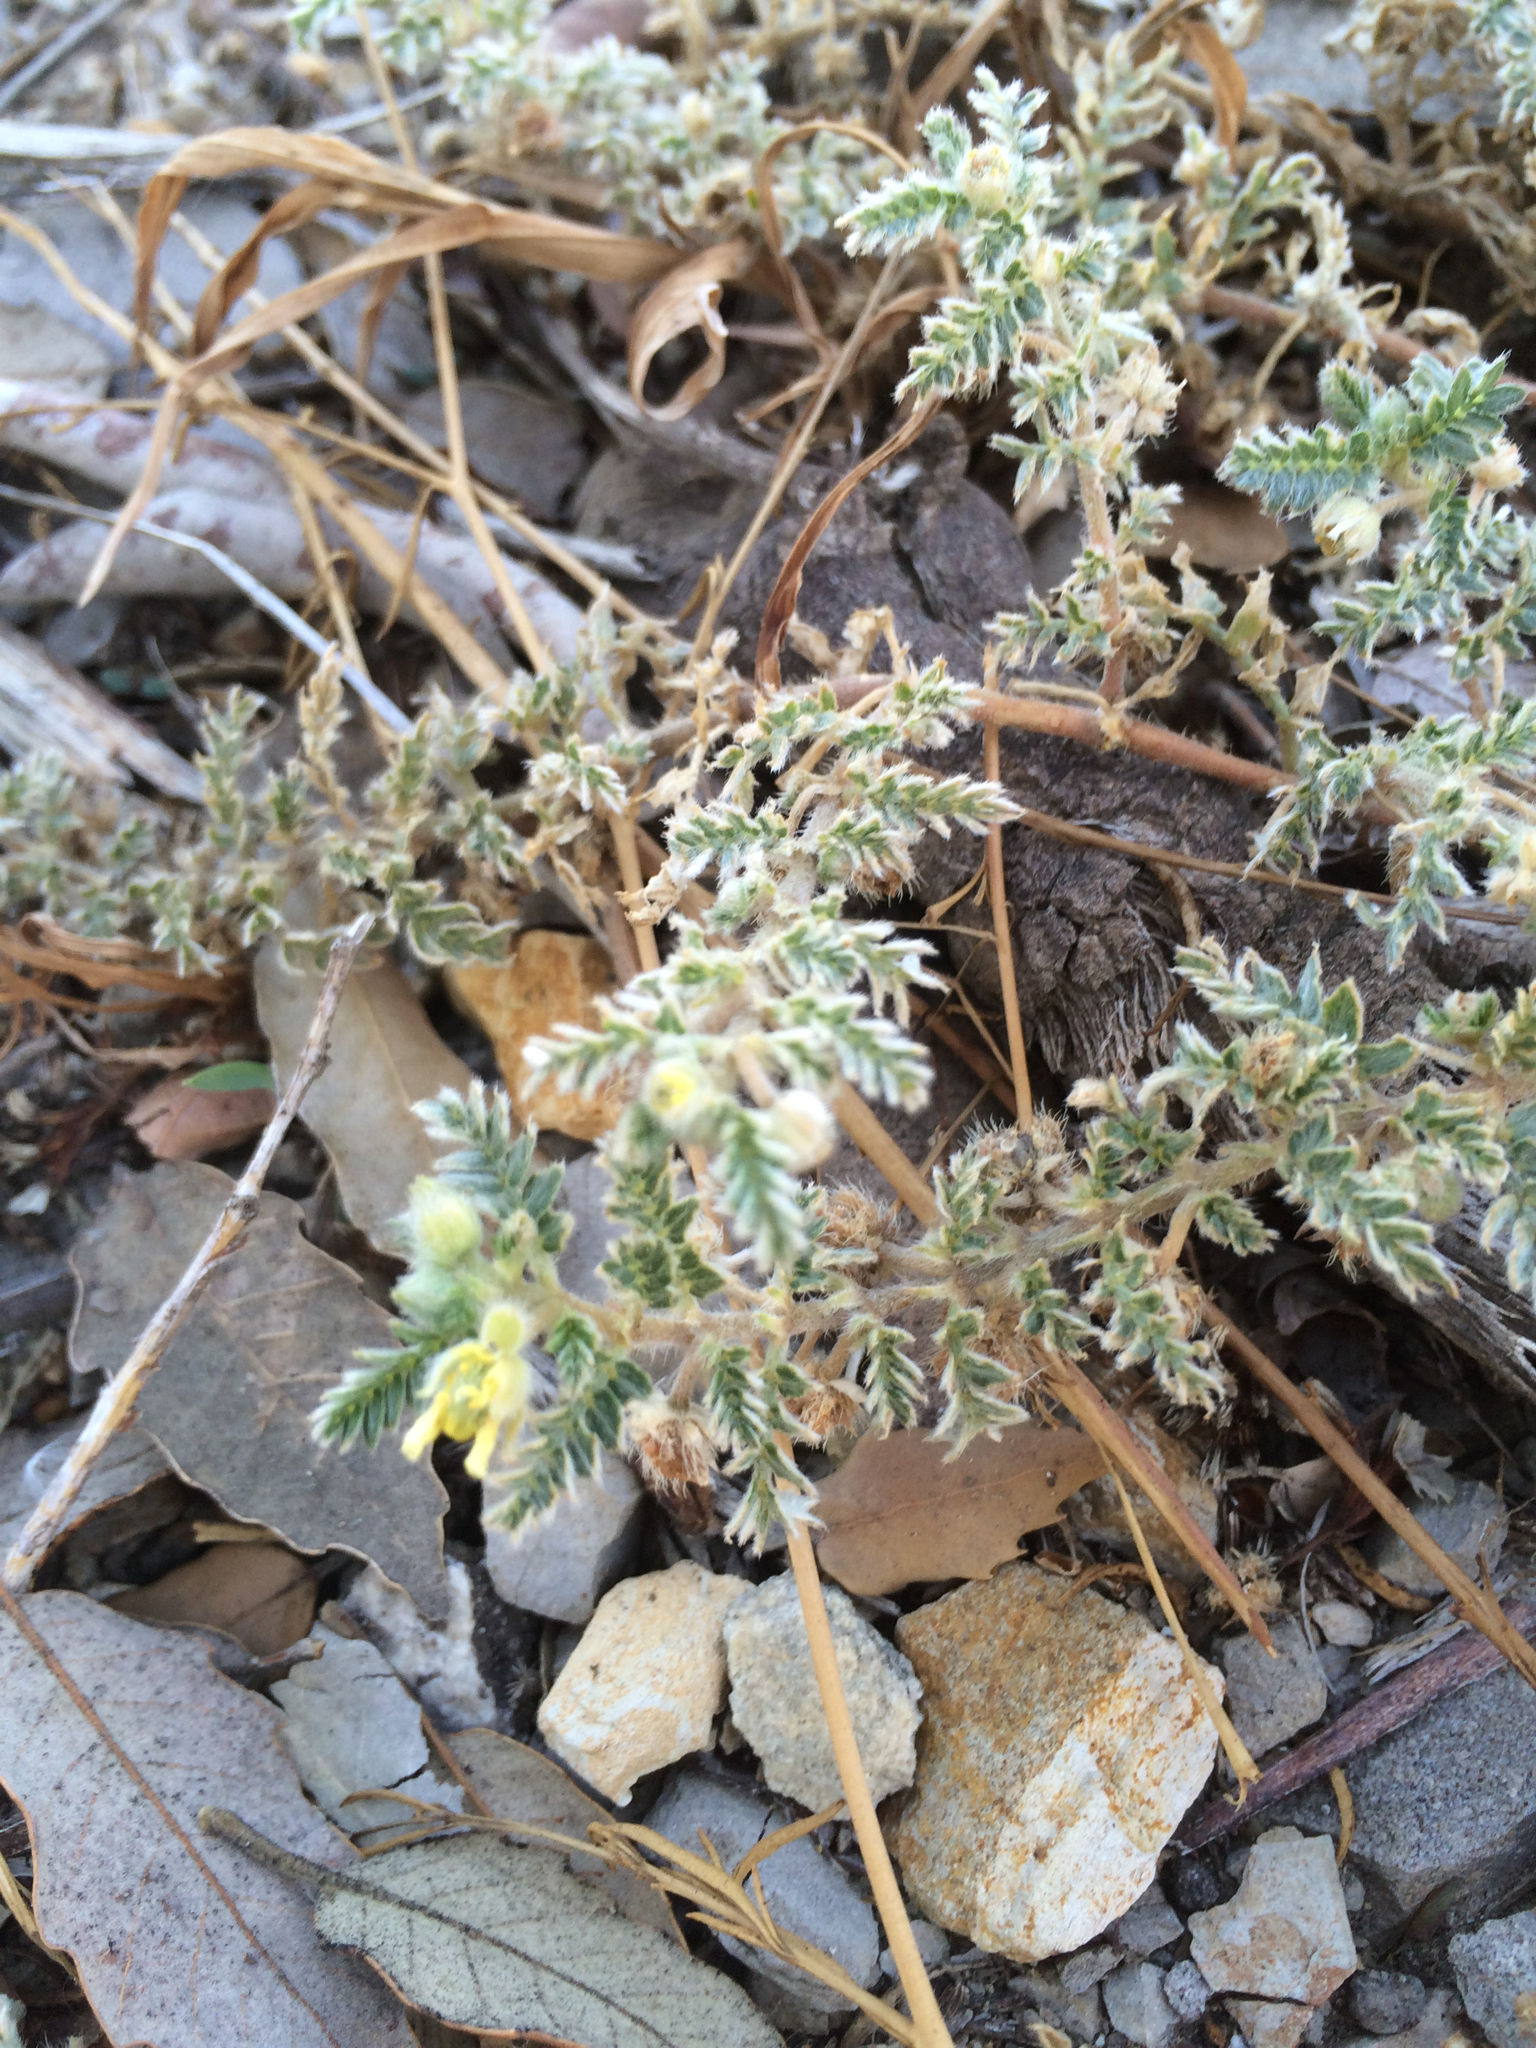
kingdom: Plantae
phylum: Tracheophyta
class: Magnoliopsida
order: Zygophyllales
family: Zygophyllaceae
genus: Tribulus
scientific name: Tribulus terrestris
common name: Puncturevine
